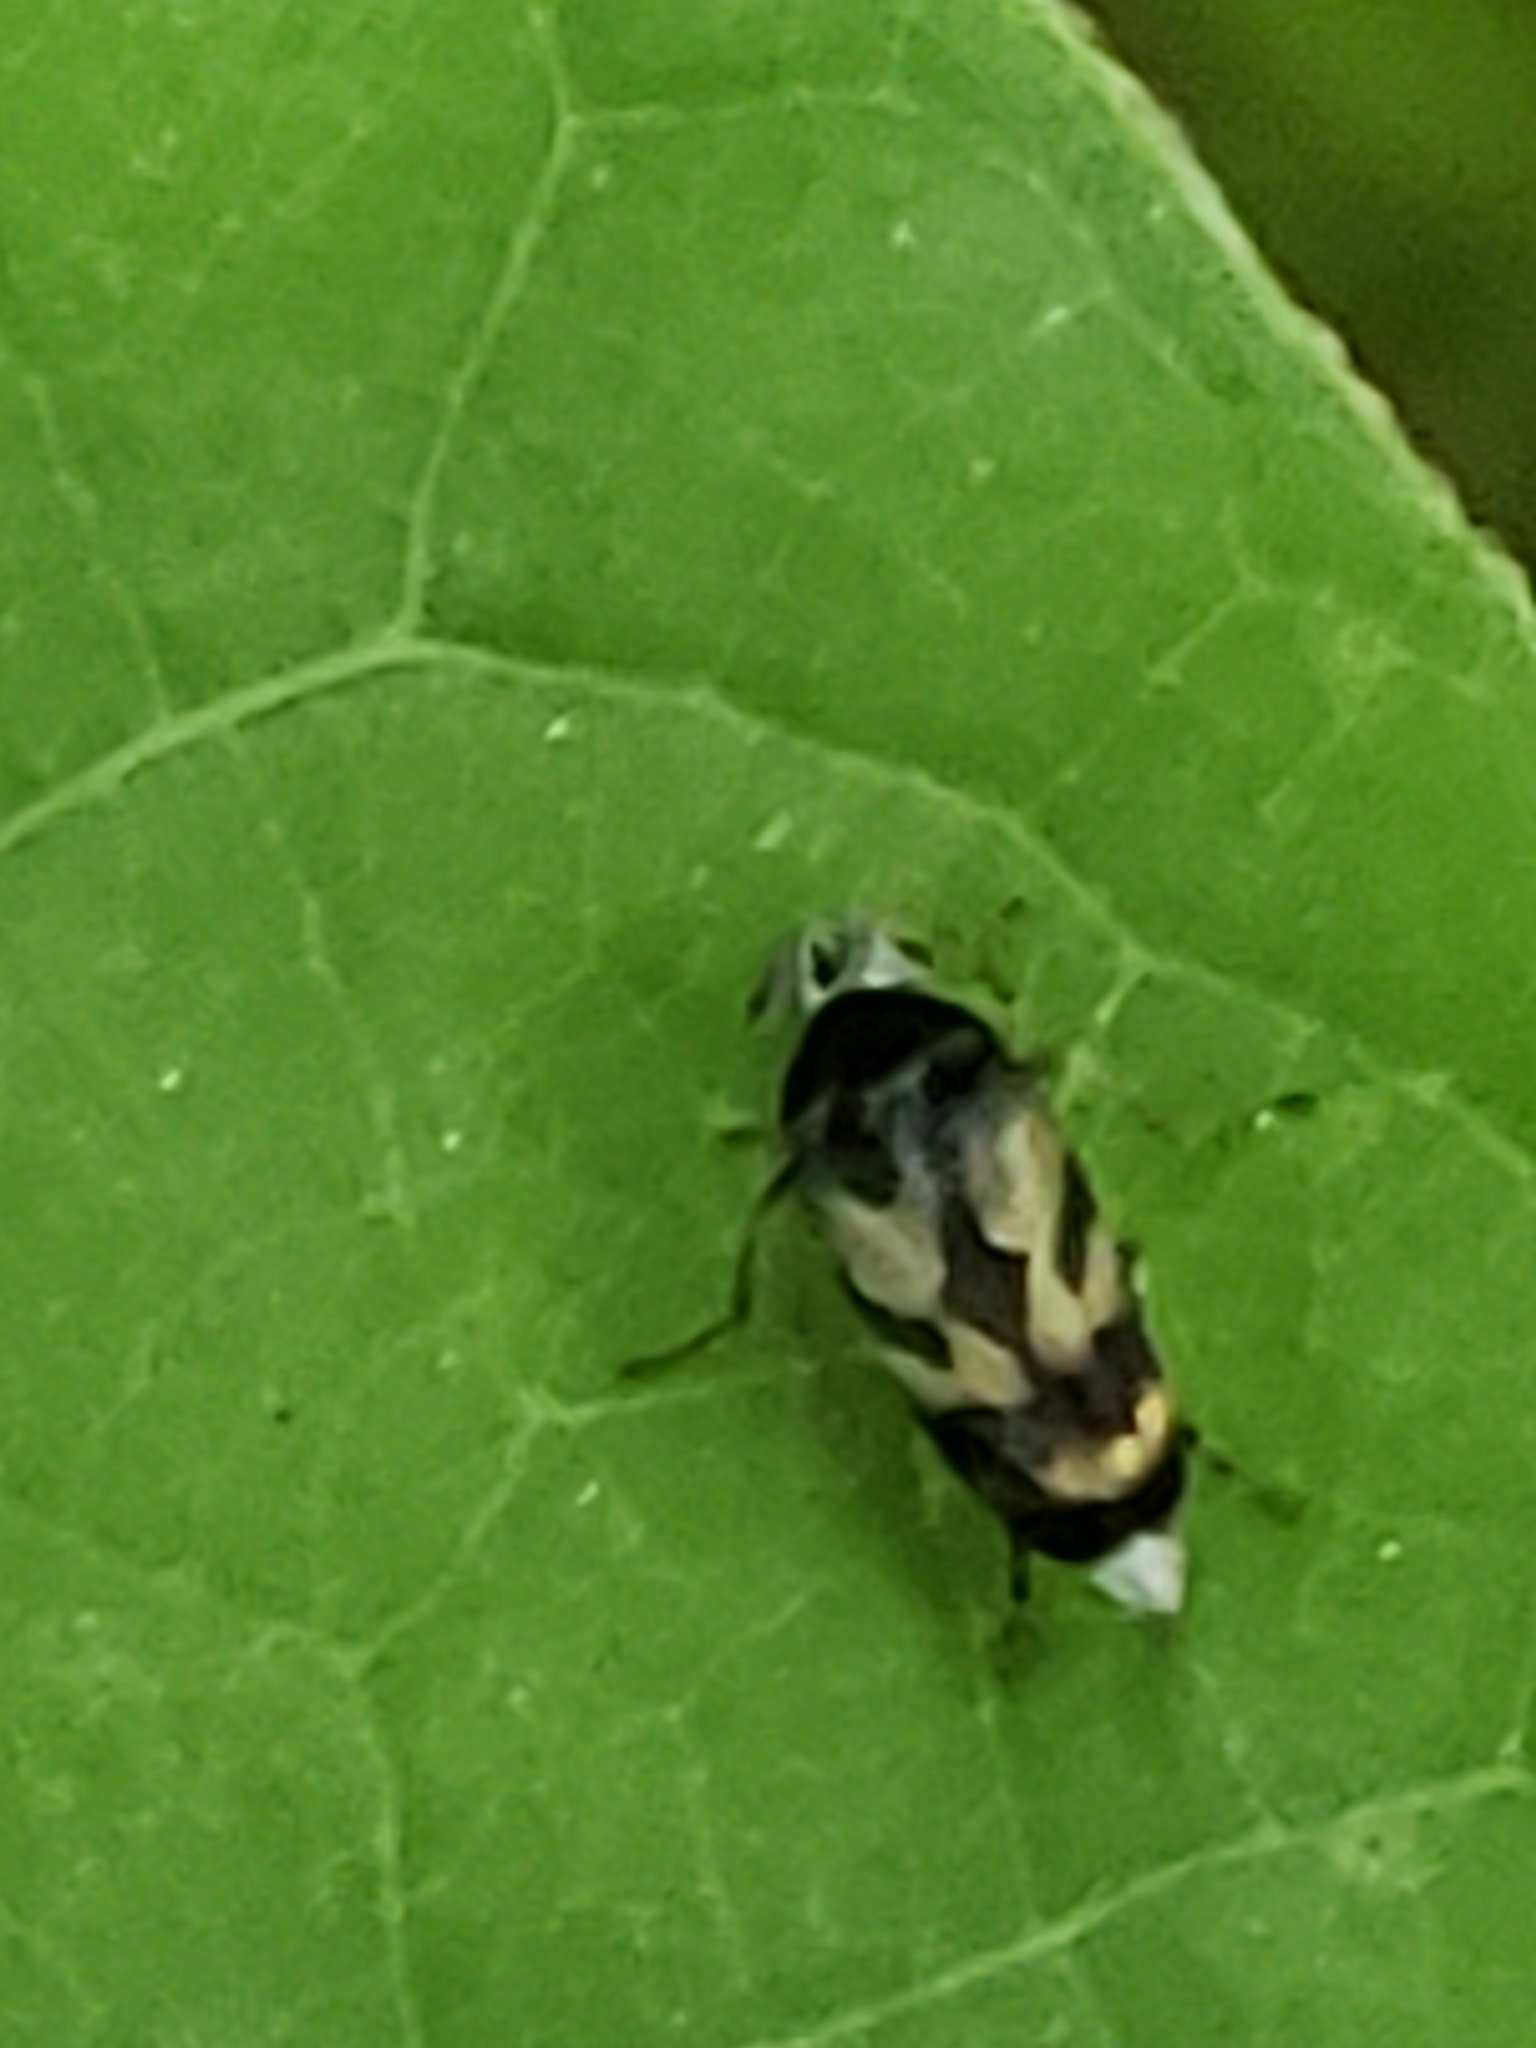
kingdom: Animalia
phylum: Arthropoda
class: Insecta
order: Coleoptera
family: Mordellidae
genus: Paramordellaria
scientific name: Paramordellaria triloba
